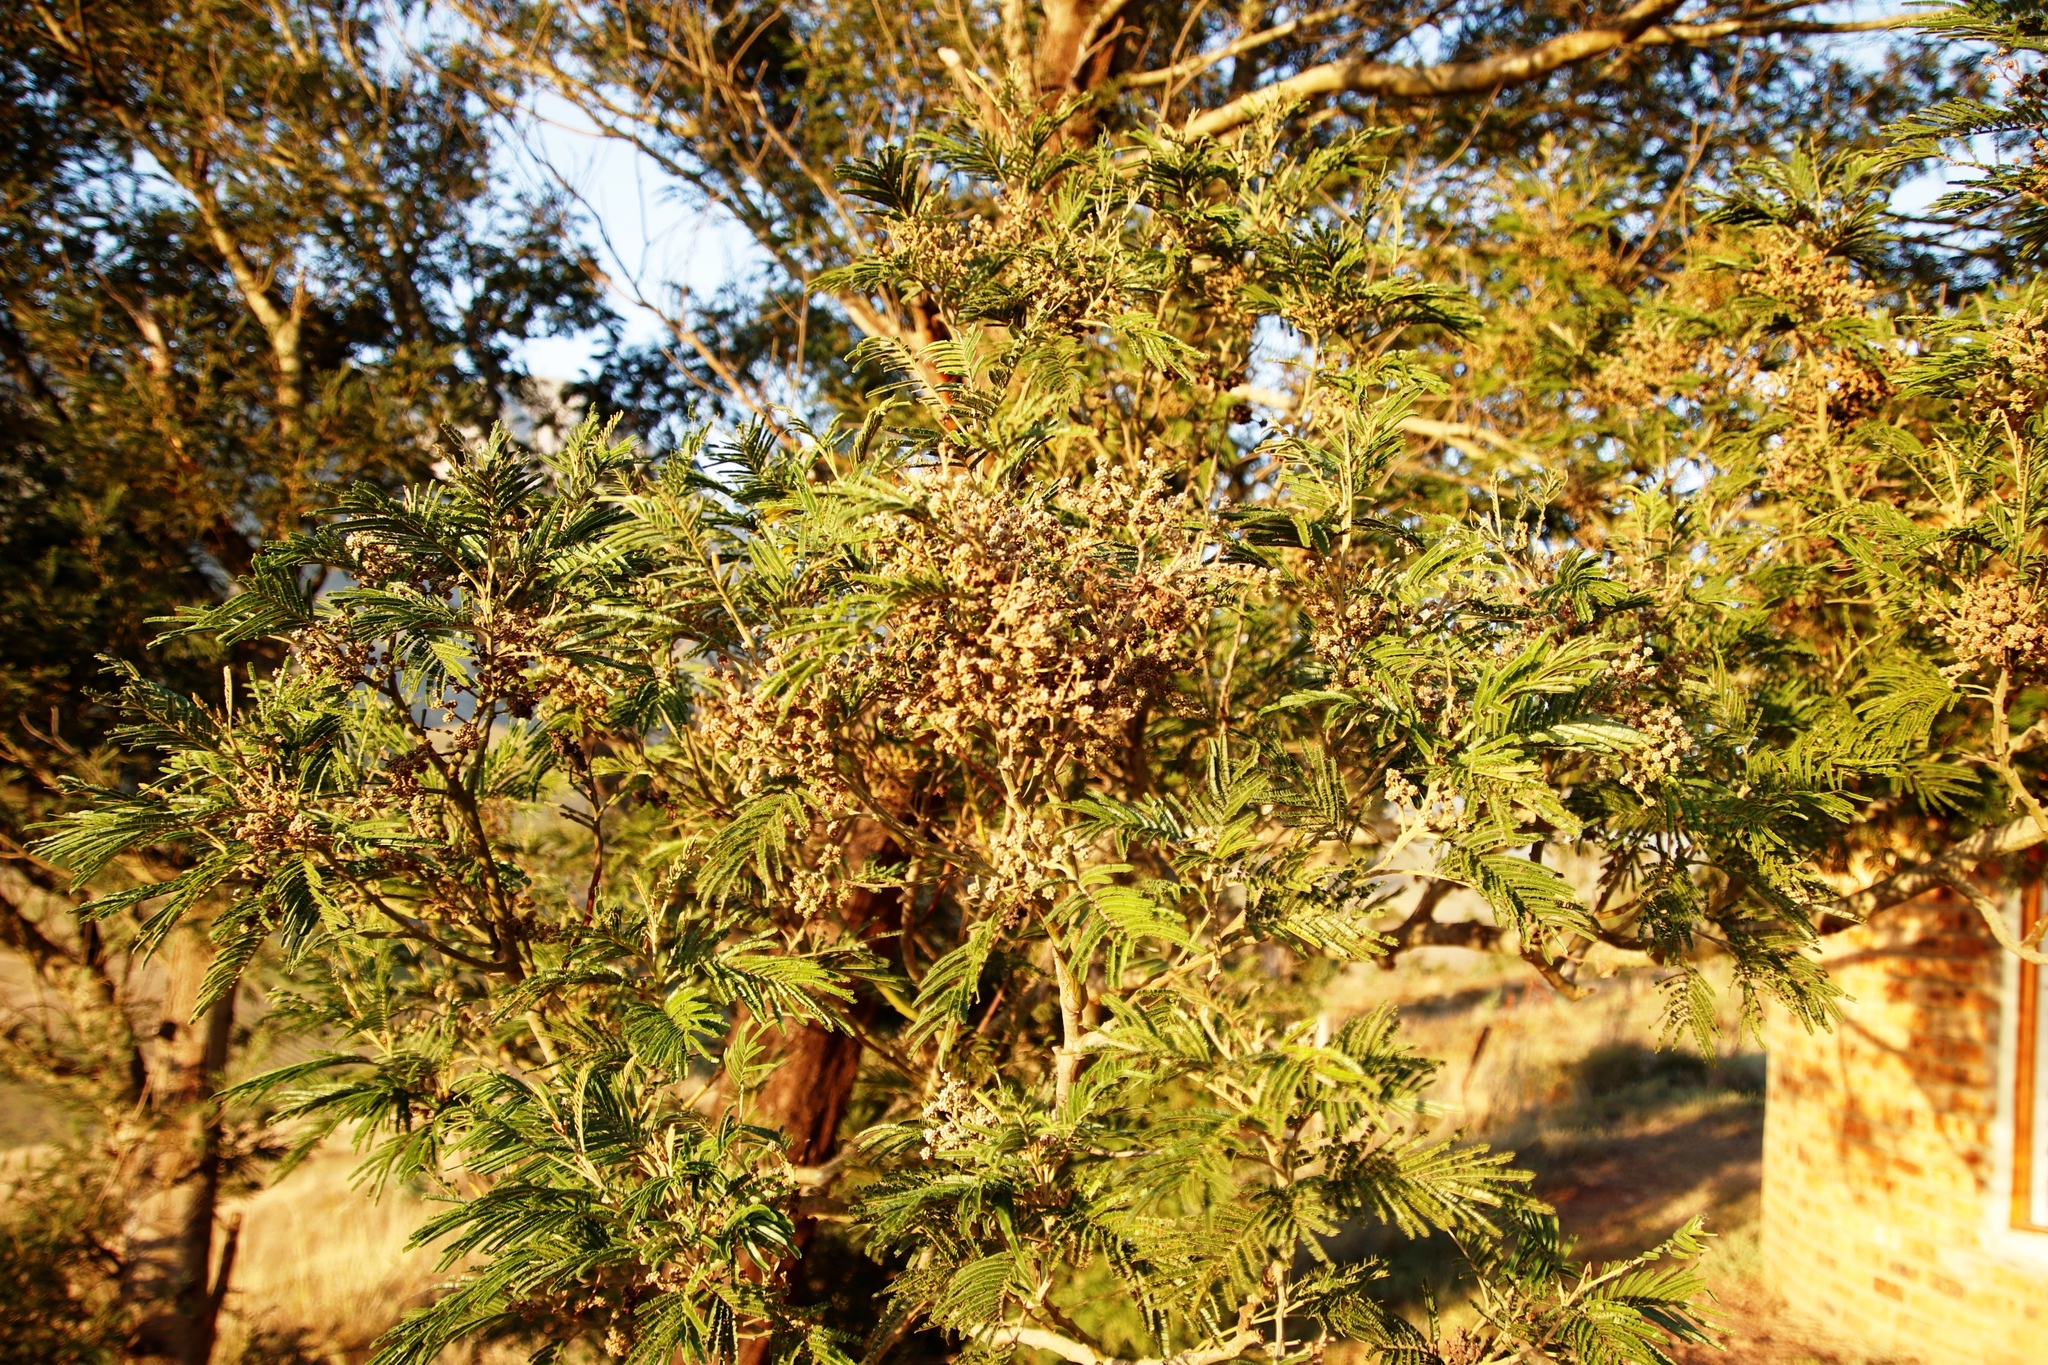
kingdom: Plantae
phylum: Tracheophyta
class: Magnoliopsida
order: Fabales
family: Fabaceae
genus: Acacia
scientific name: Acacia mearnsii
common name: Black wattle
